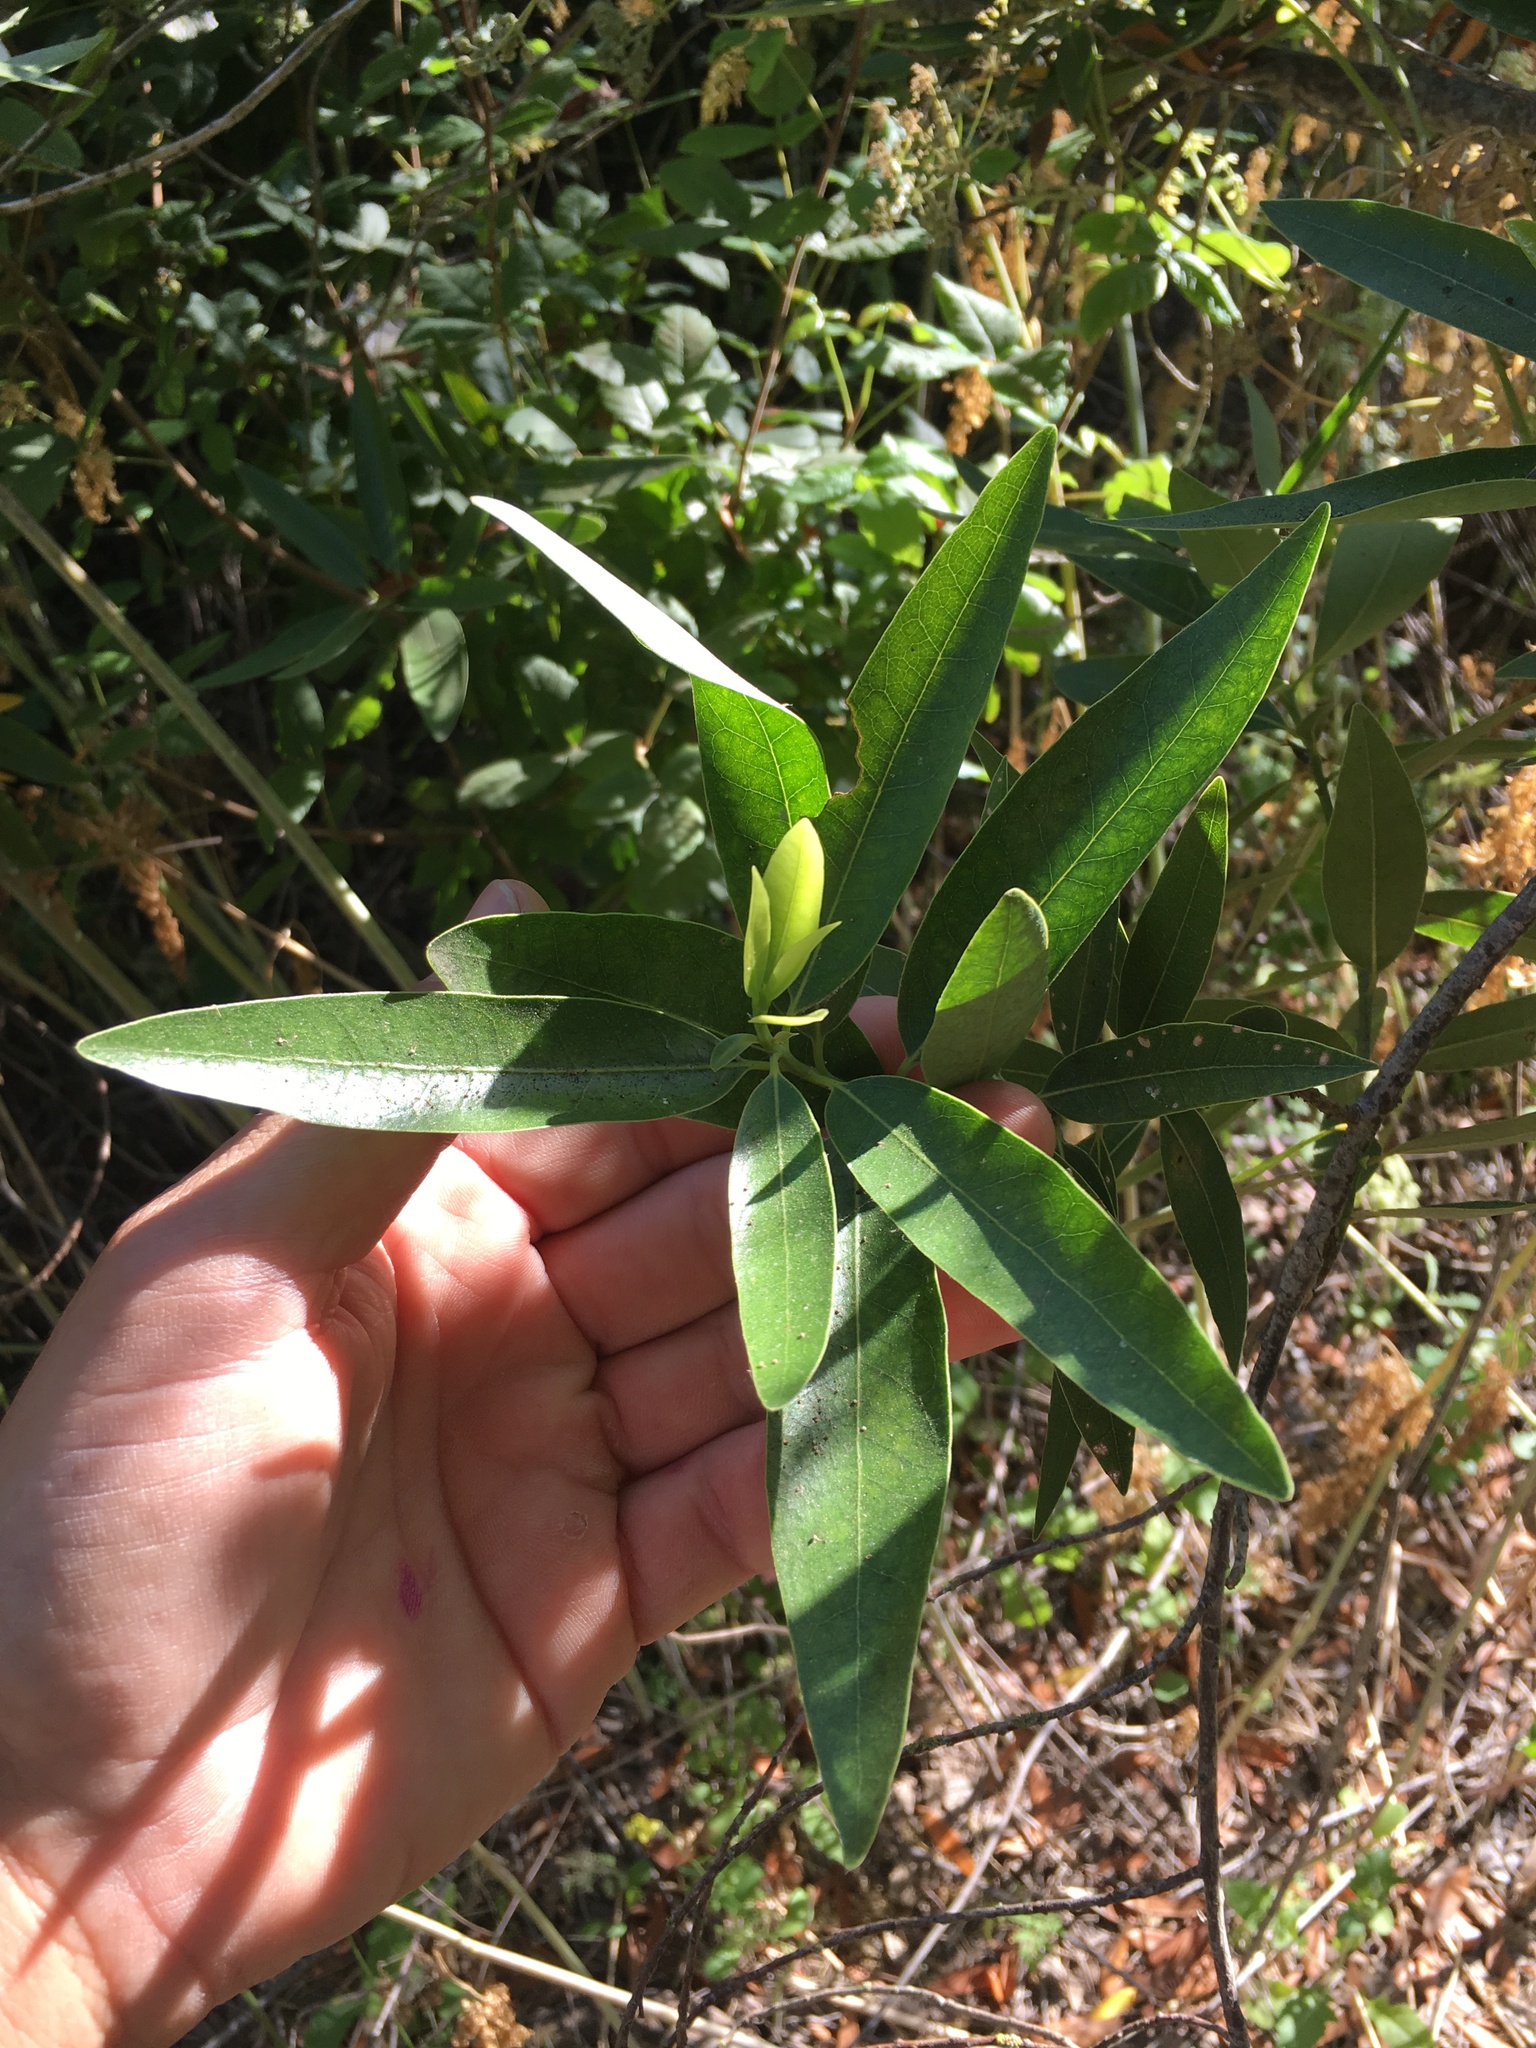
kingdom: Plantae
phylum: Tracheophyta
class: Magnoliopsida
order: Laurales
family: Lauraceae
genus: Umbellularia
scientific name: Umbellularia californica
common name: California bay
